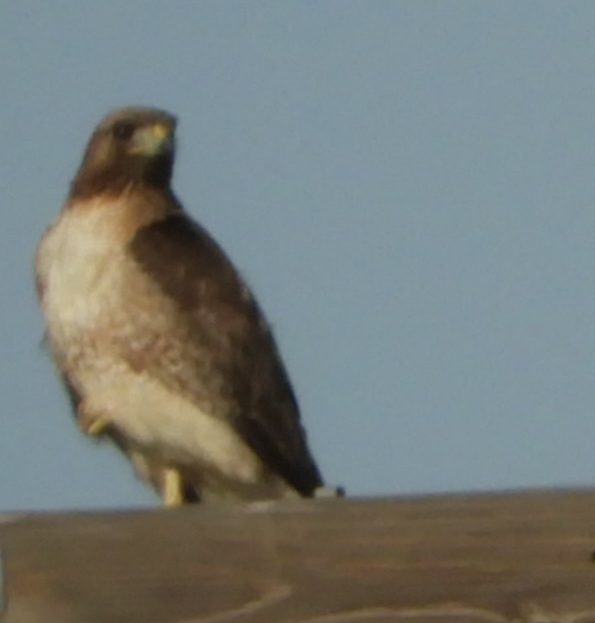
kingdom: Animalia
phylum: Chordata
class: Aves
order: Accipitriformes
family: Accipitridae
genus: Buteo
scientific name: Buteo jamaicensis
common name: Red-tailed hawk
